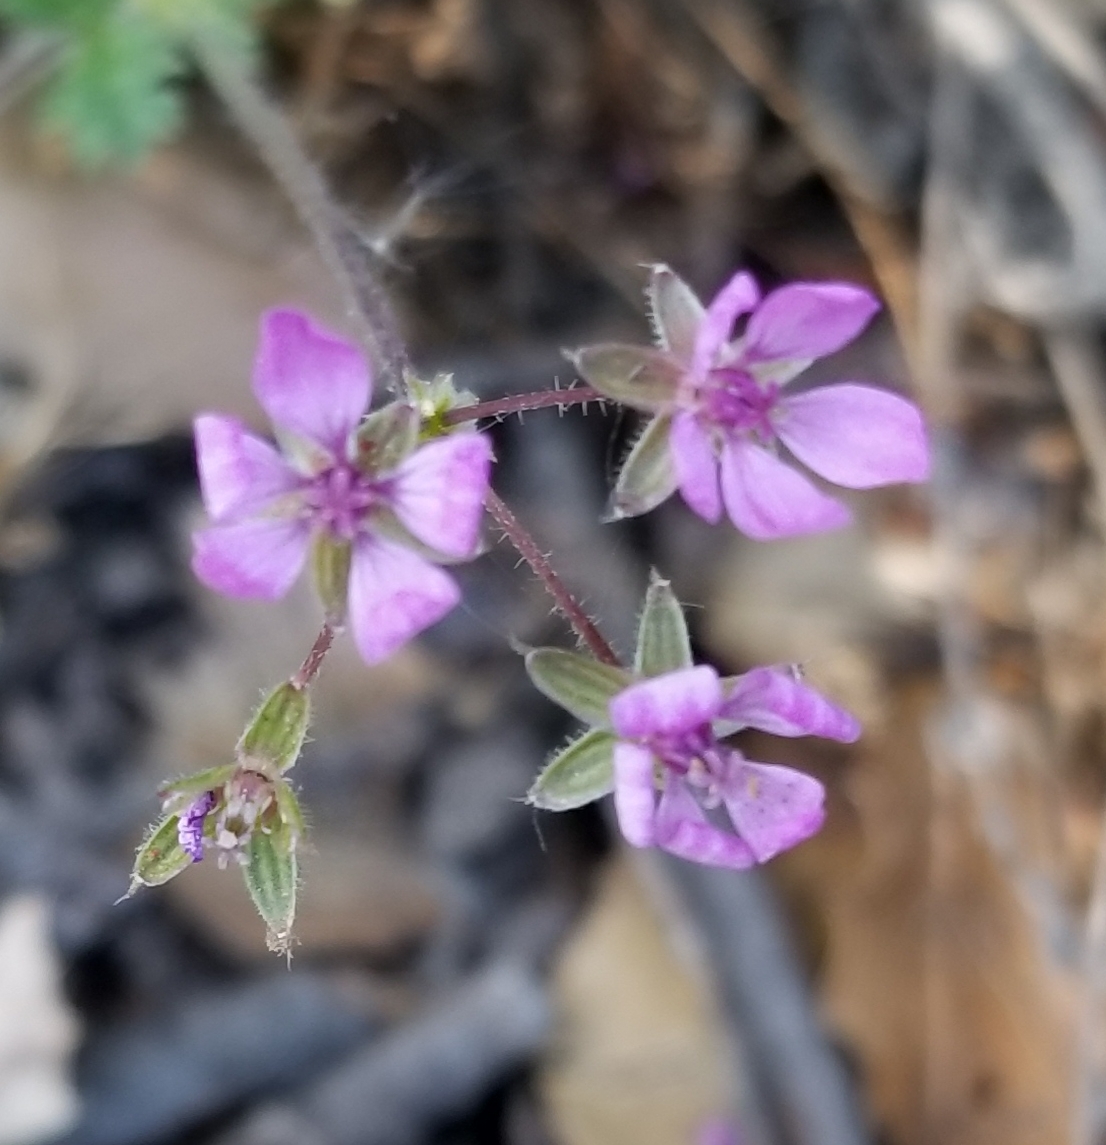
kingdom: Plantae
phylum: Tracheophyta
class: Magnoliopsida
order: Geraniales
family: Geraniaceae
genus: Erodium
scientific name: Erodium cicutarium
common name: Common stork's-bill
